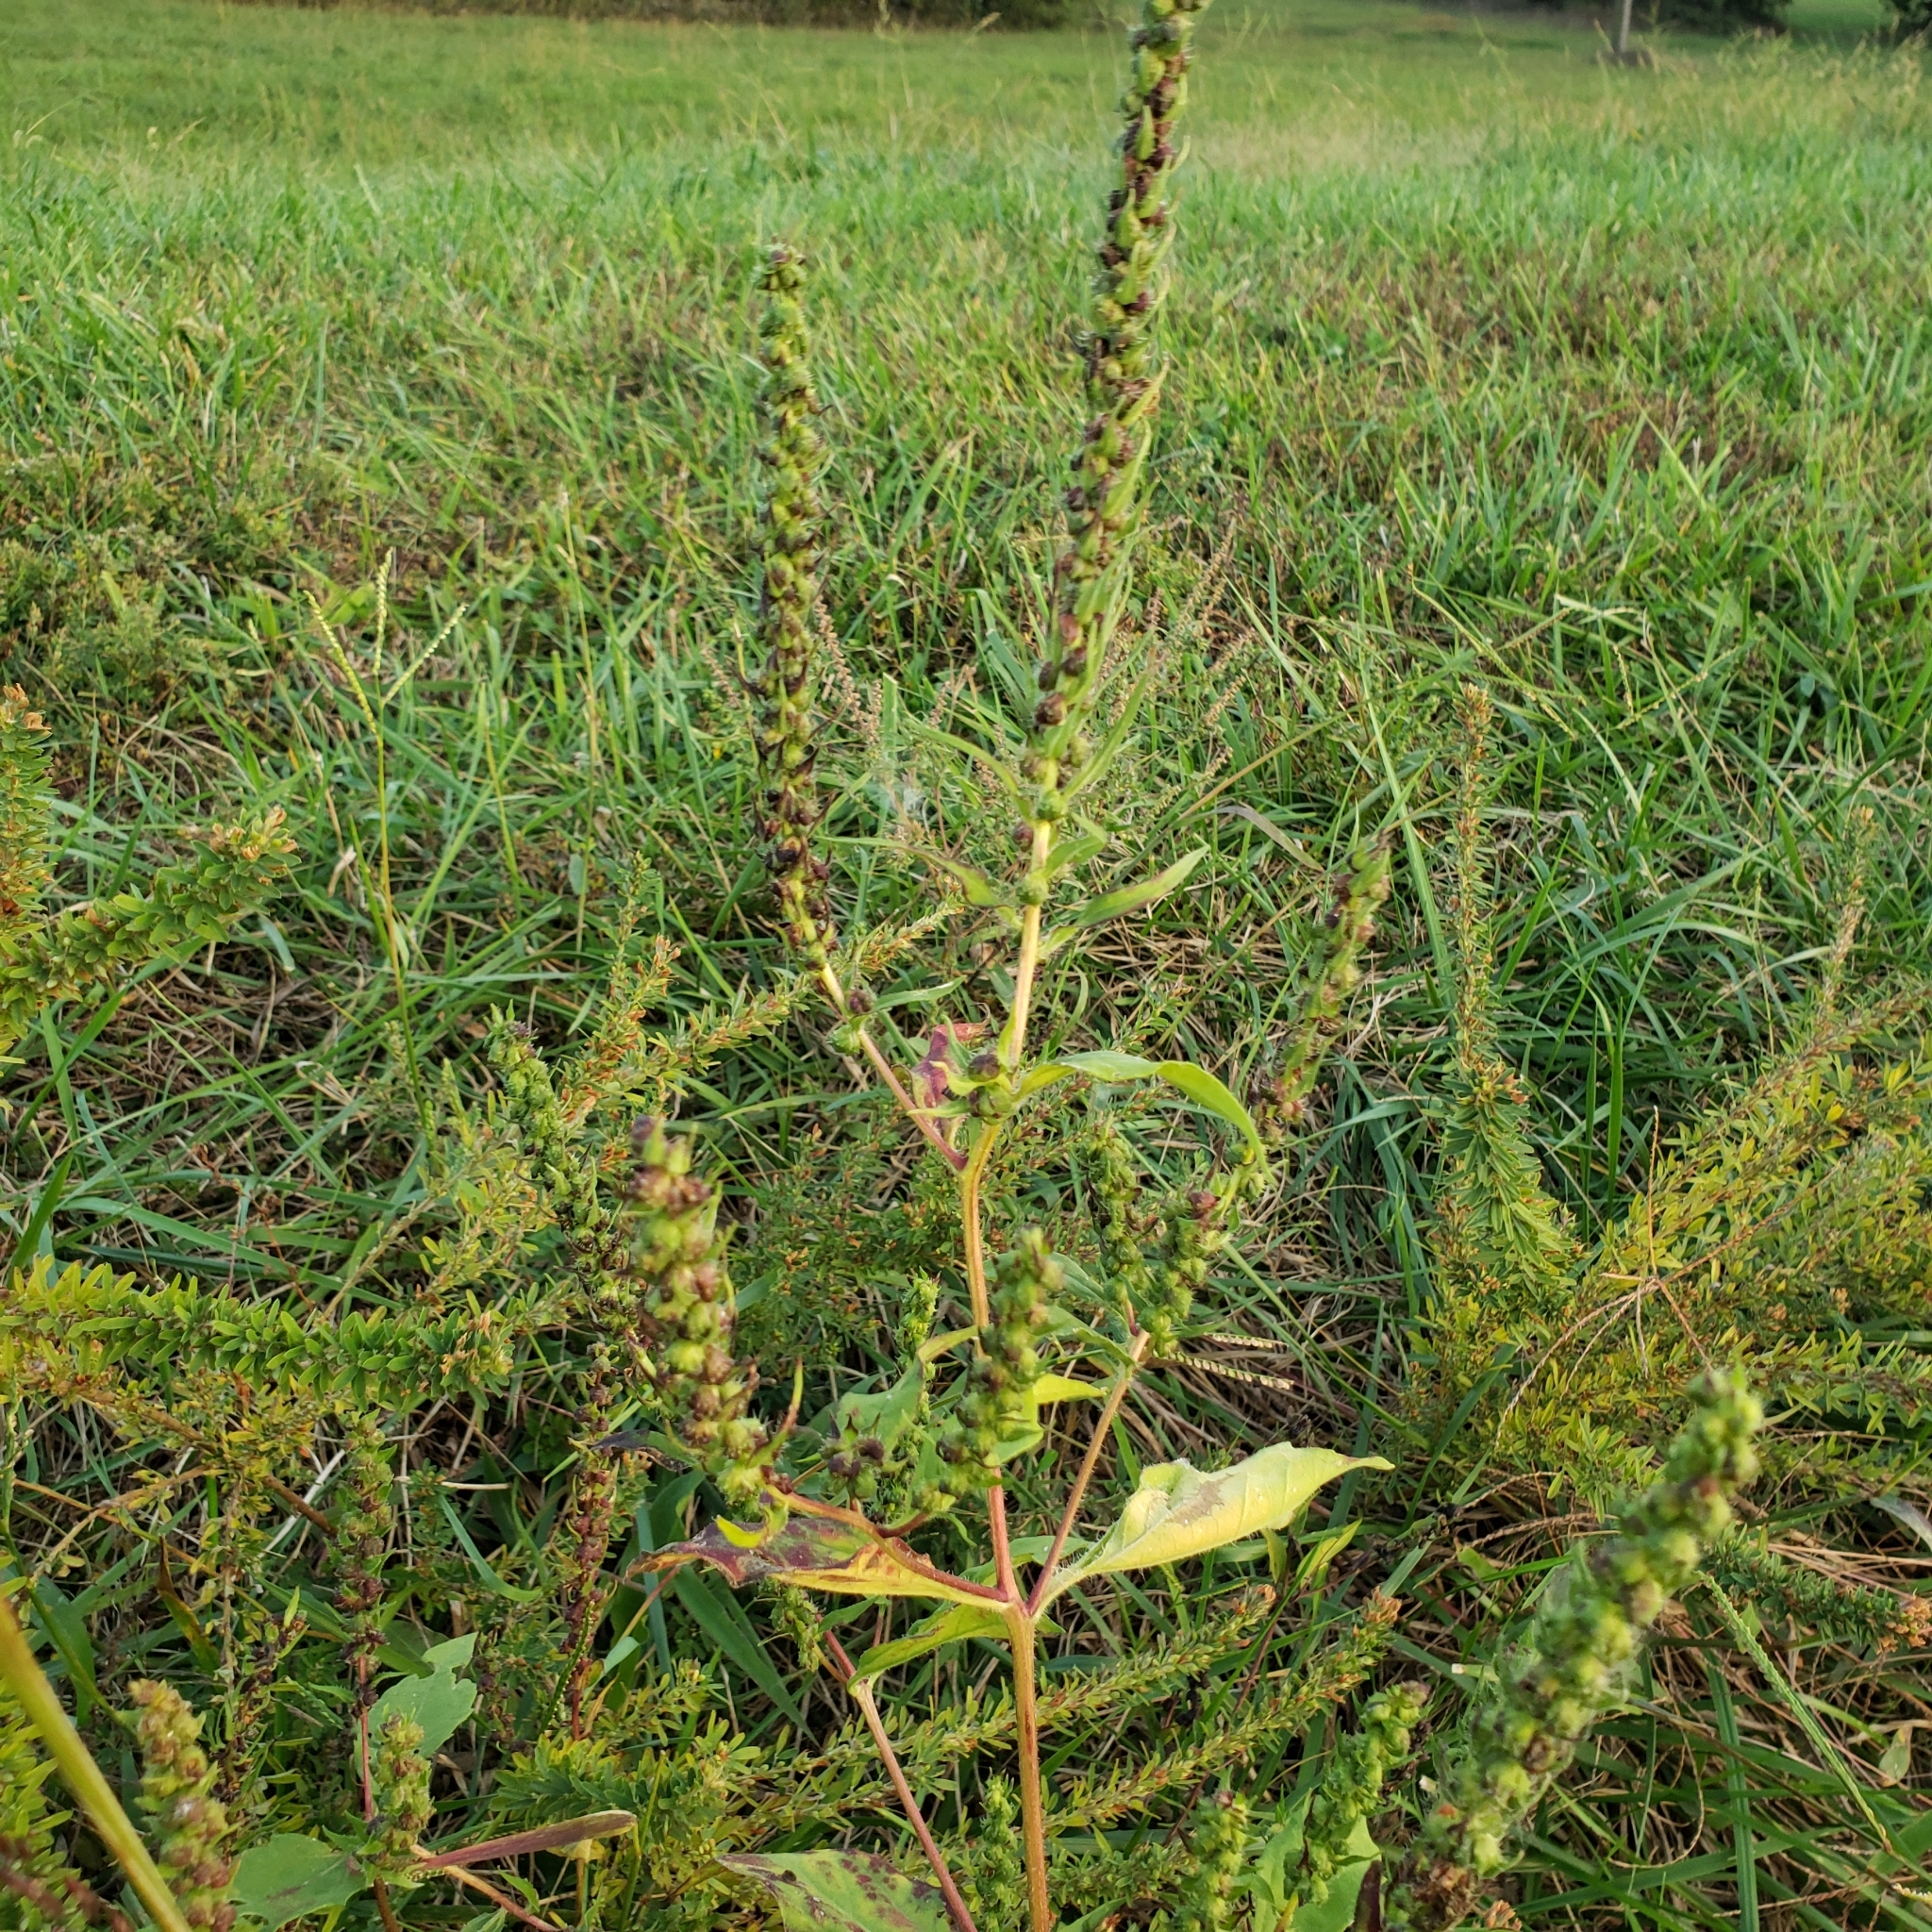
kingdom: Plantae
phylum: Tracheophyta
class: Magnoliopsida
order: Asterales
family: Asteraceae
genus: Iva
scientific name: Iva annua
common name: Marsh-elder
